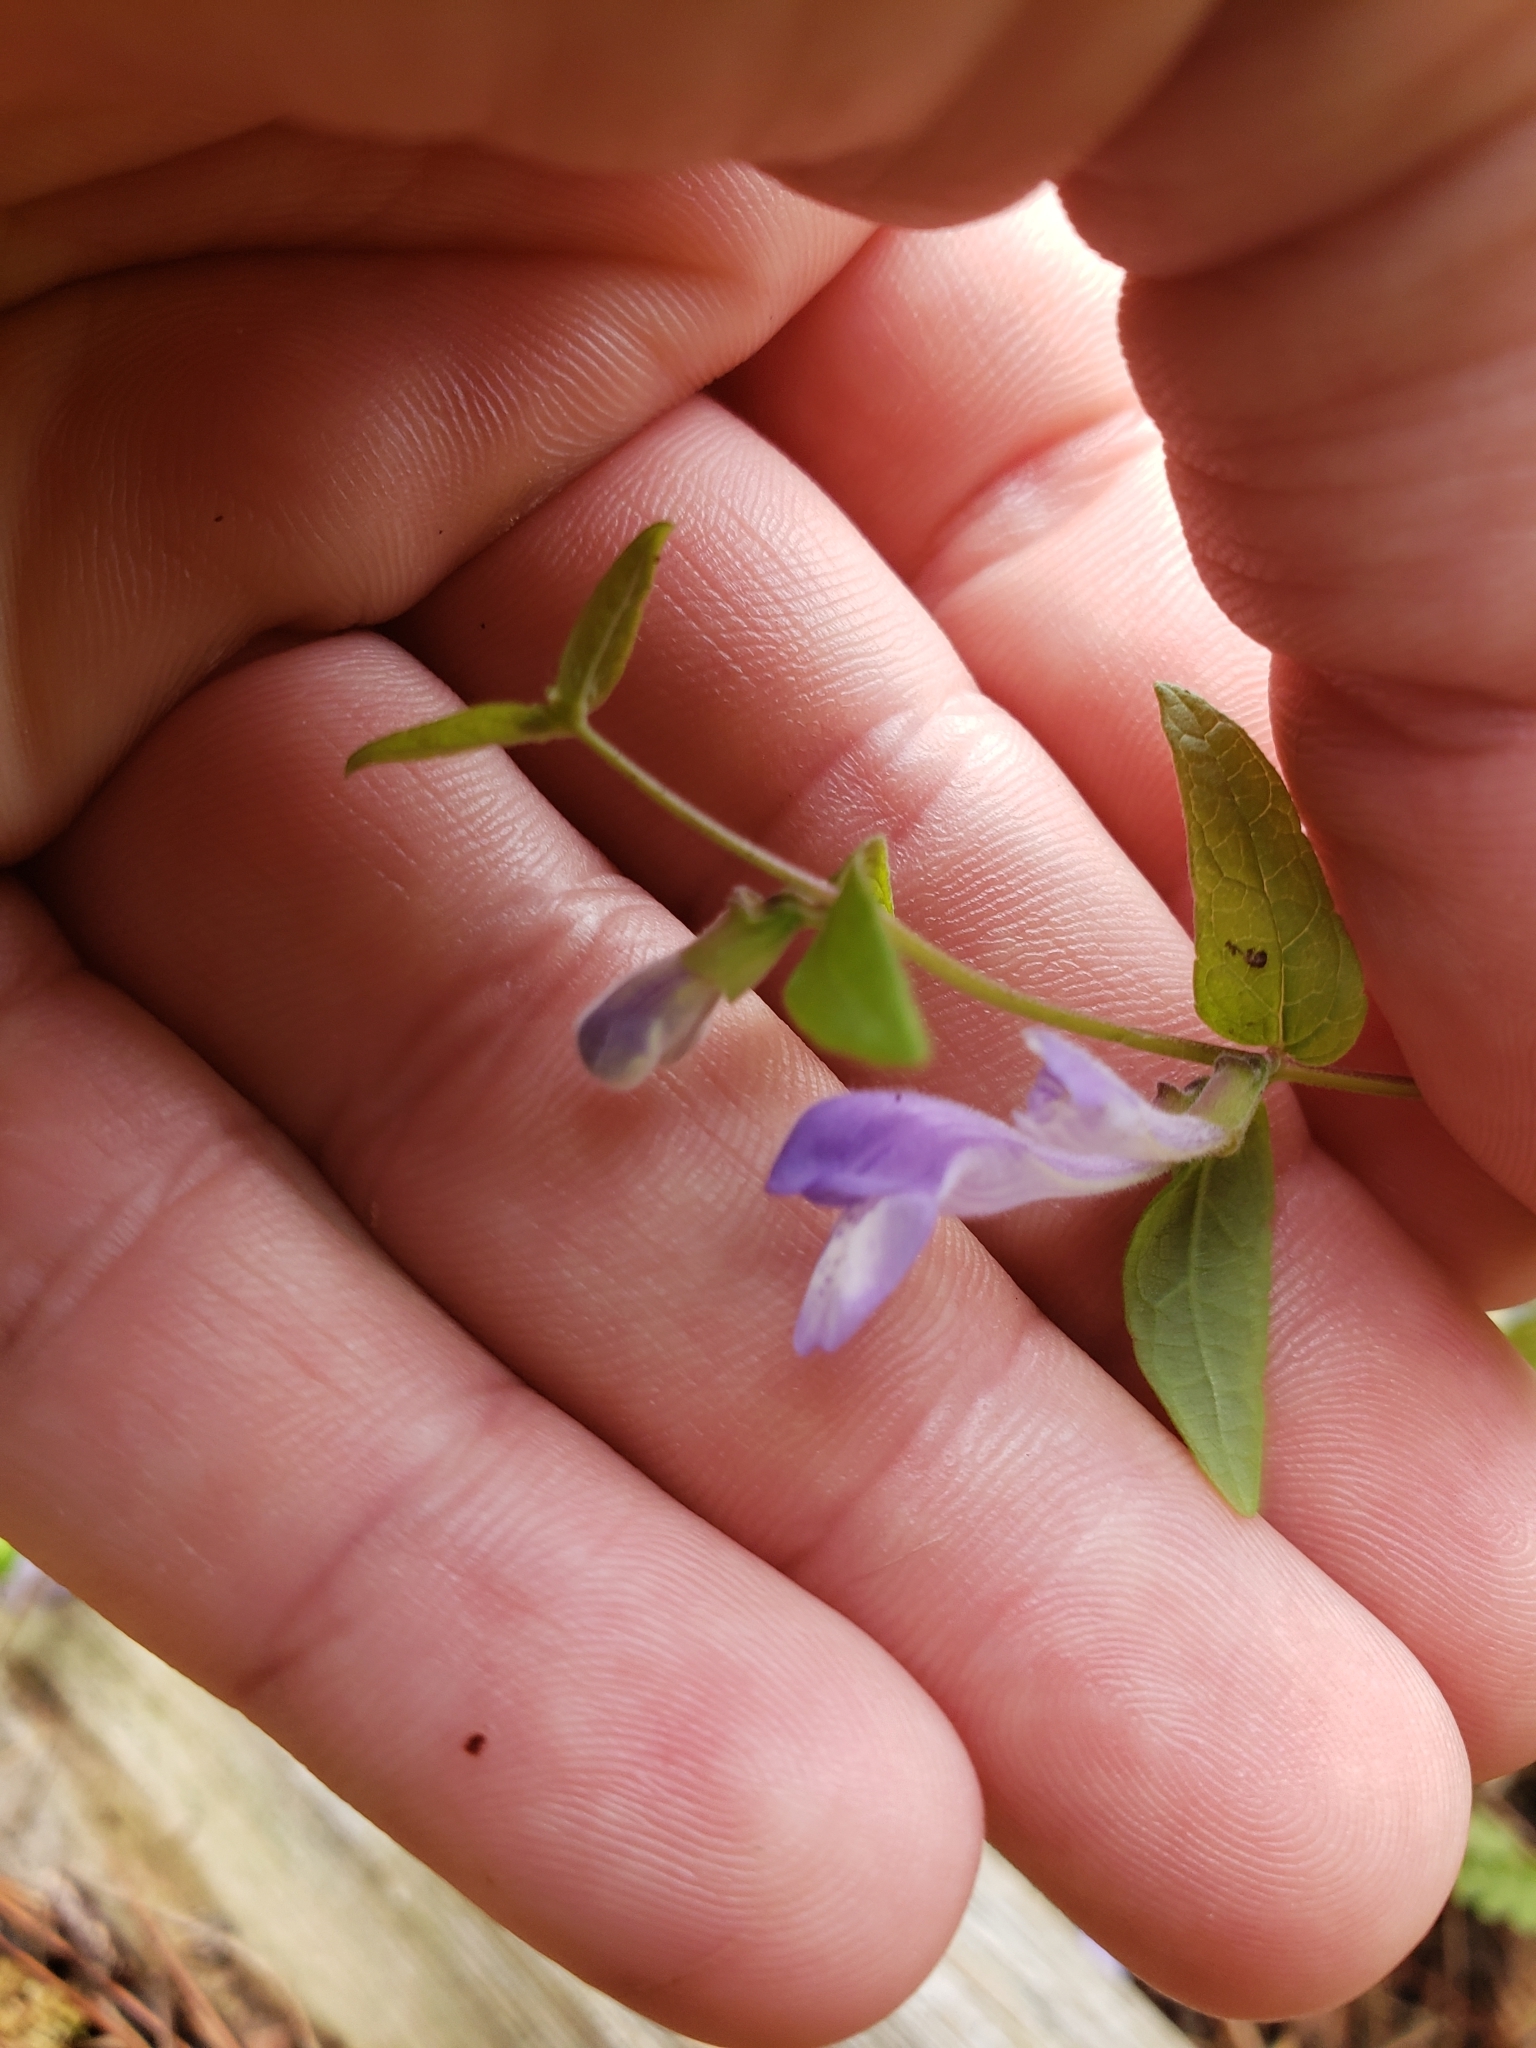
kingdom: Plantae
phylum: Tracheophyta
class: Magnoliopsida
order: Lamiales
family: Lamiaceae
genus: Scutellaria
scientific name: Scutellaria galericulata
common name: Skullcap
